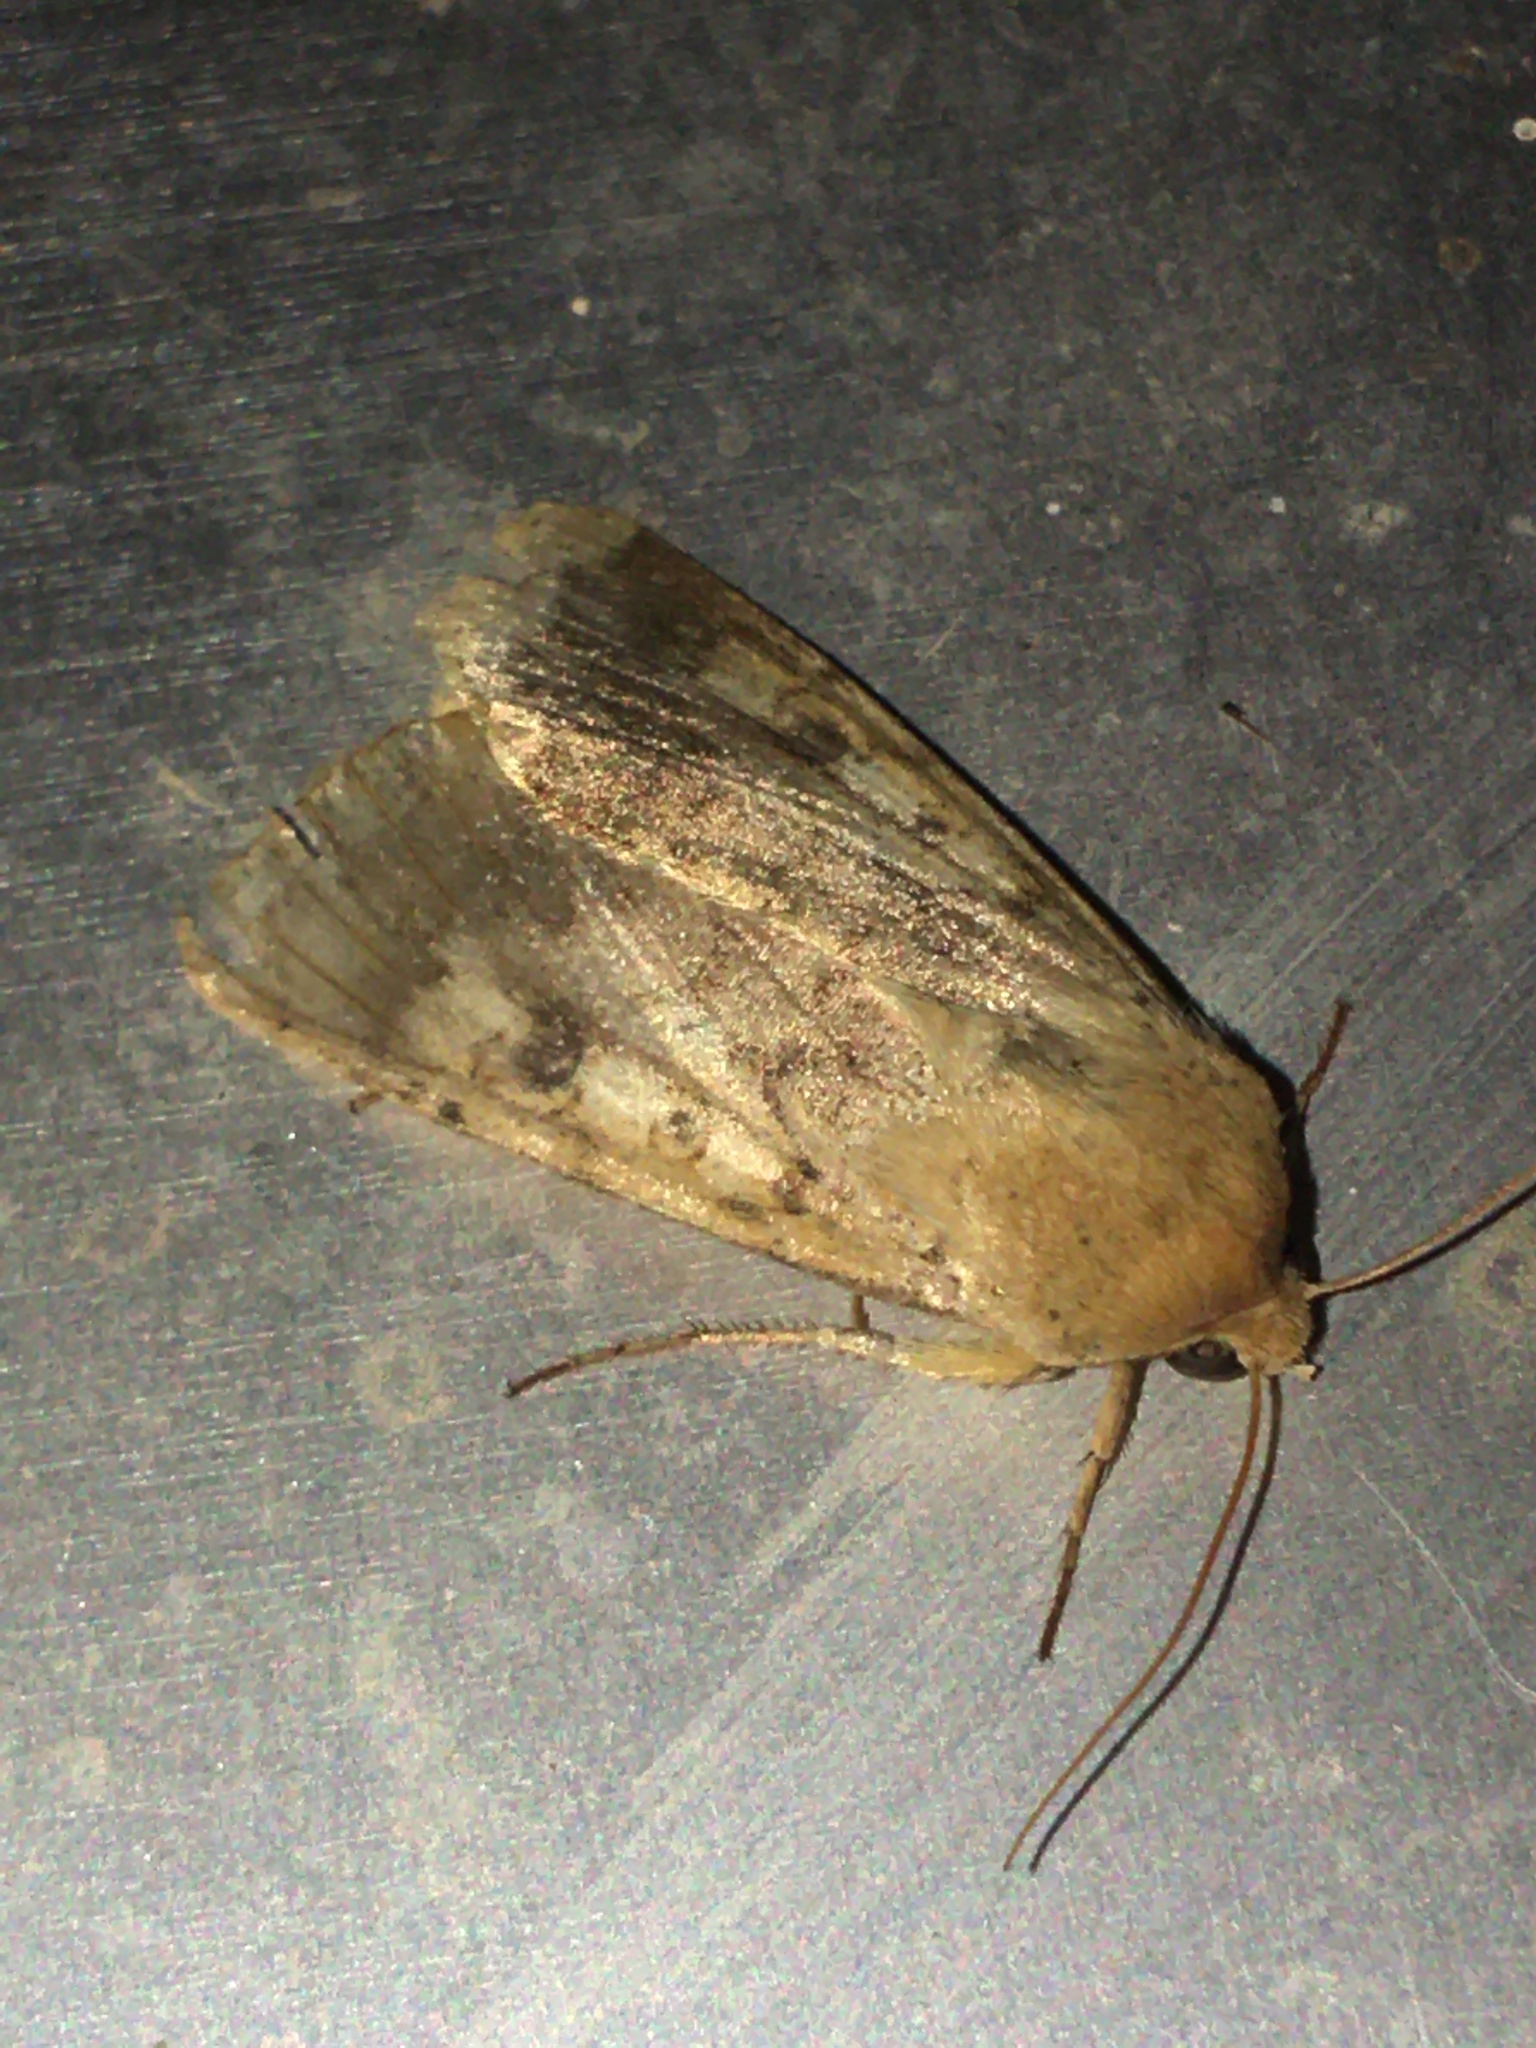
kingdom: Animalia
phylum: Arthropoda
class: Insecta
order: Lepidoptera
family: Noctuidae
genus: Helicoverpa
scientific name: Helicoverpa zea
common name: Bollworm
